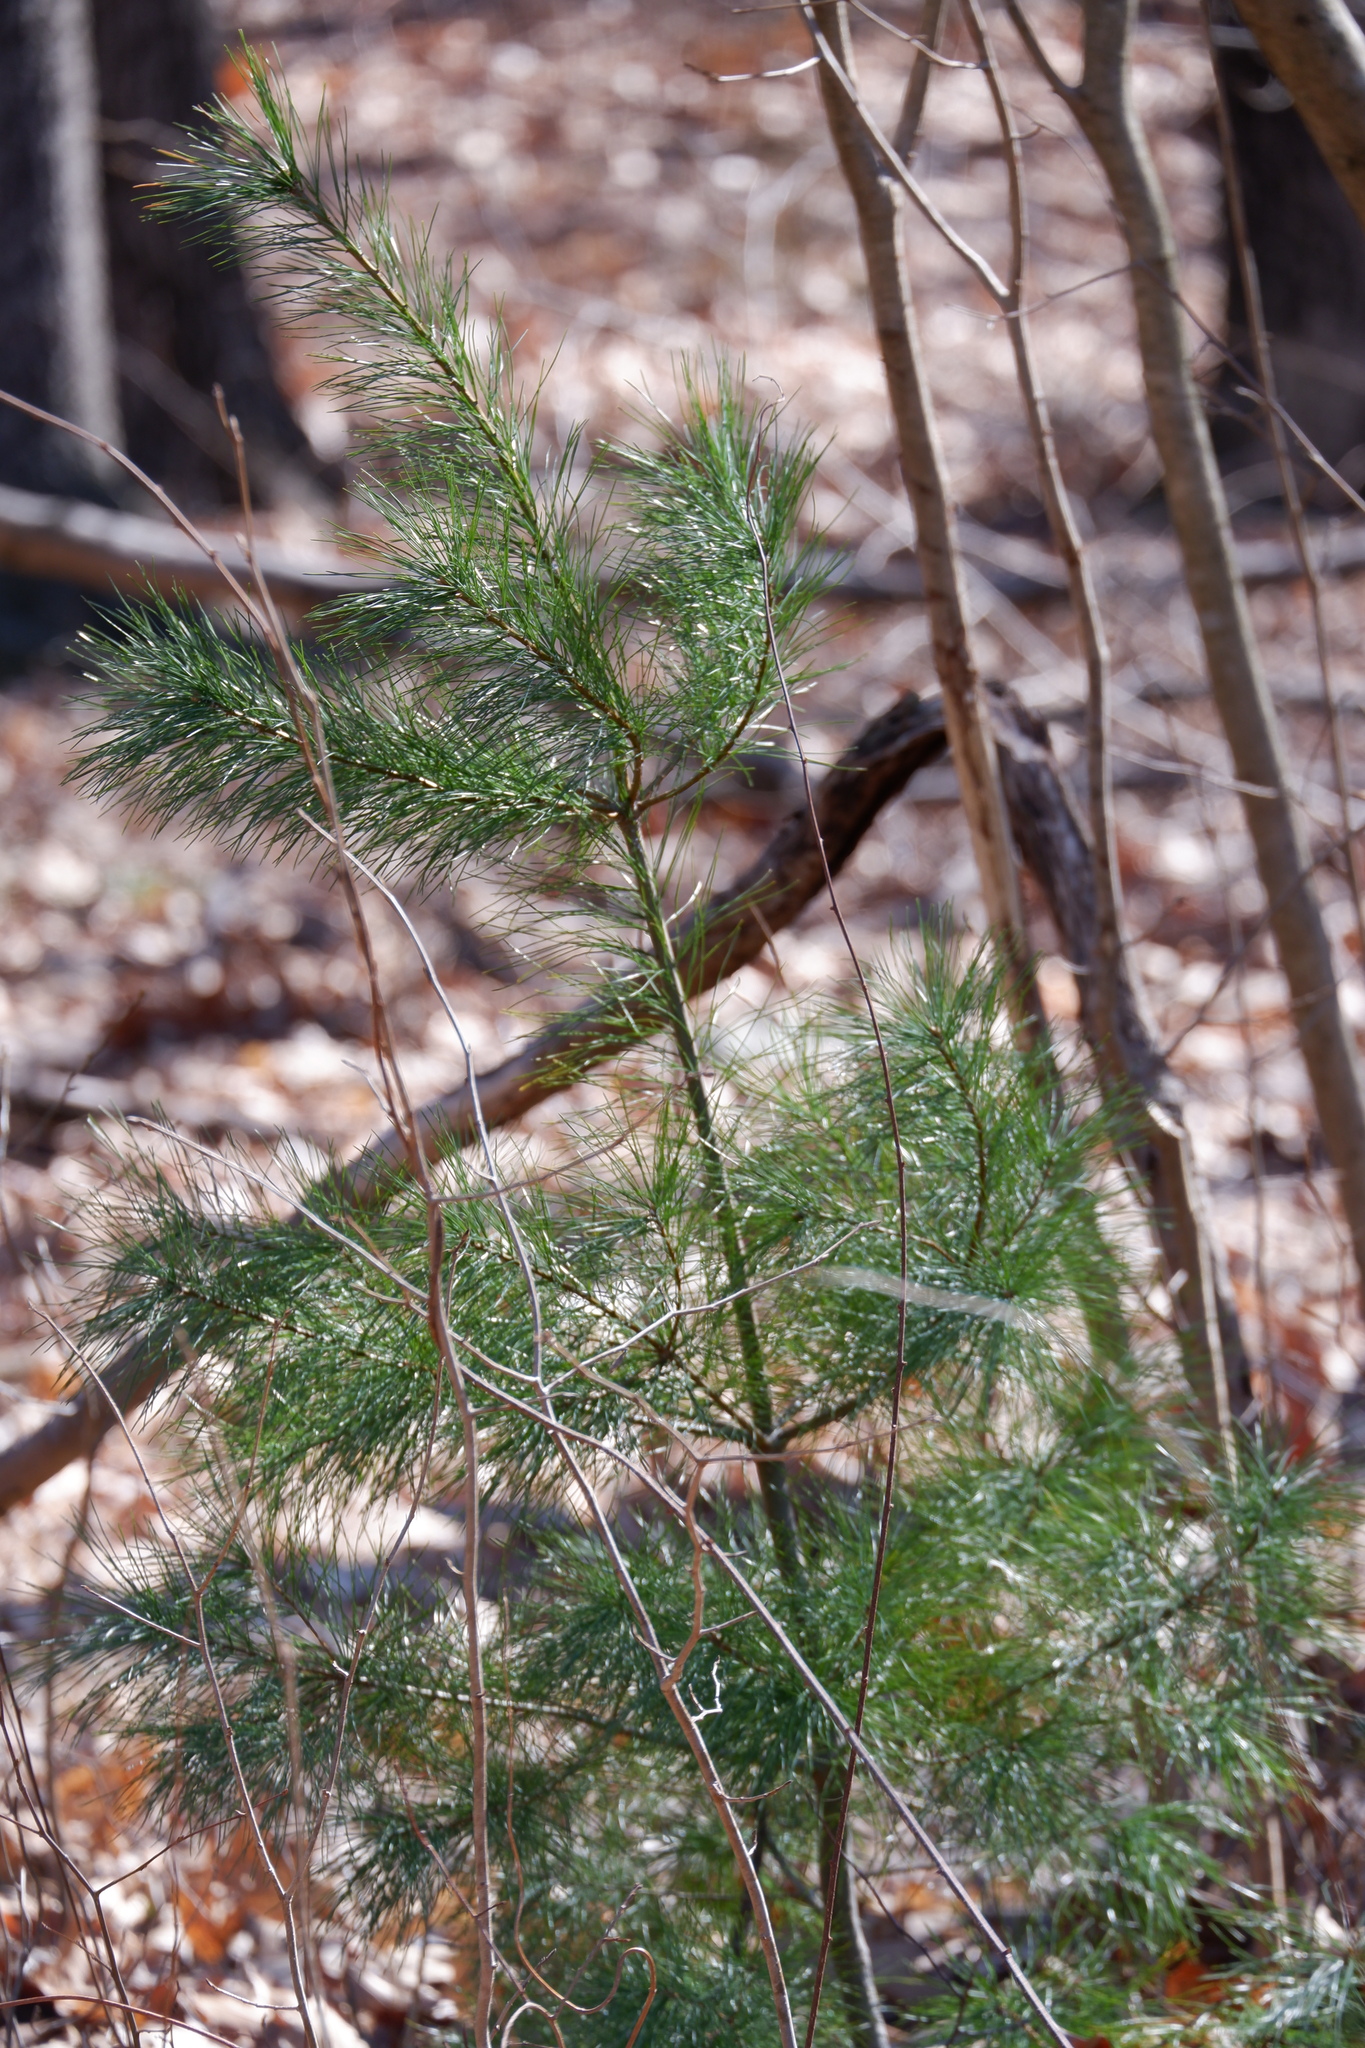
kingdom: Plantae
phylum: Tracheophyta
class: Pinopsida
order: Pinales
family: Pinaceae
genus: Pinus
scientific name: Pinus strobus
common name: Weymouth pine
